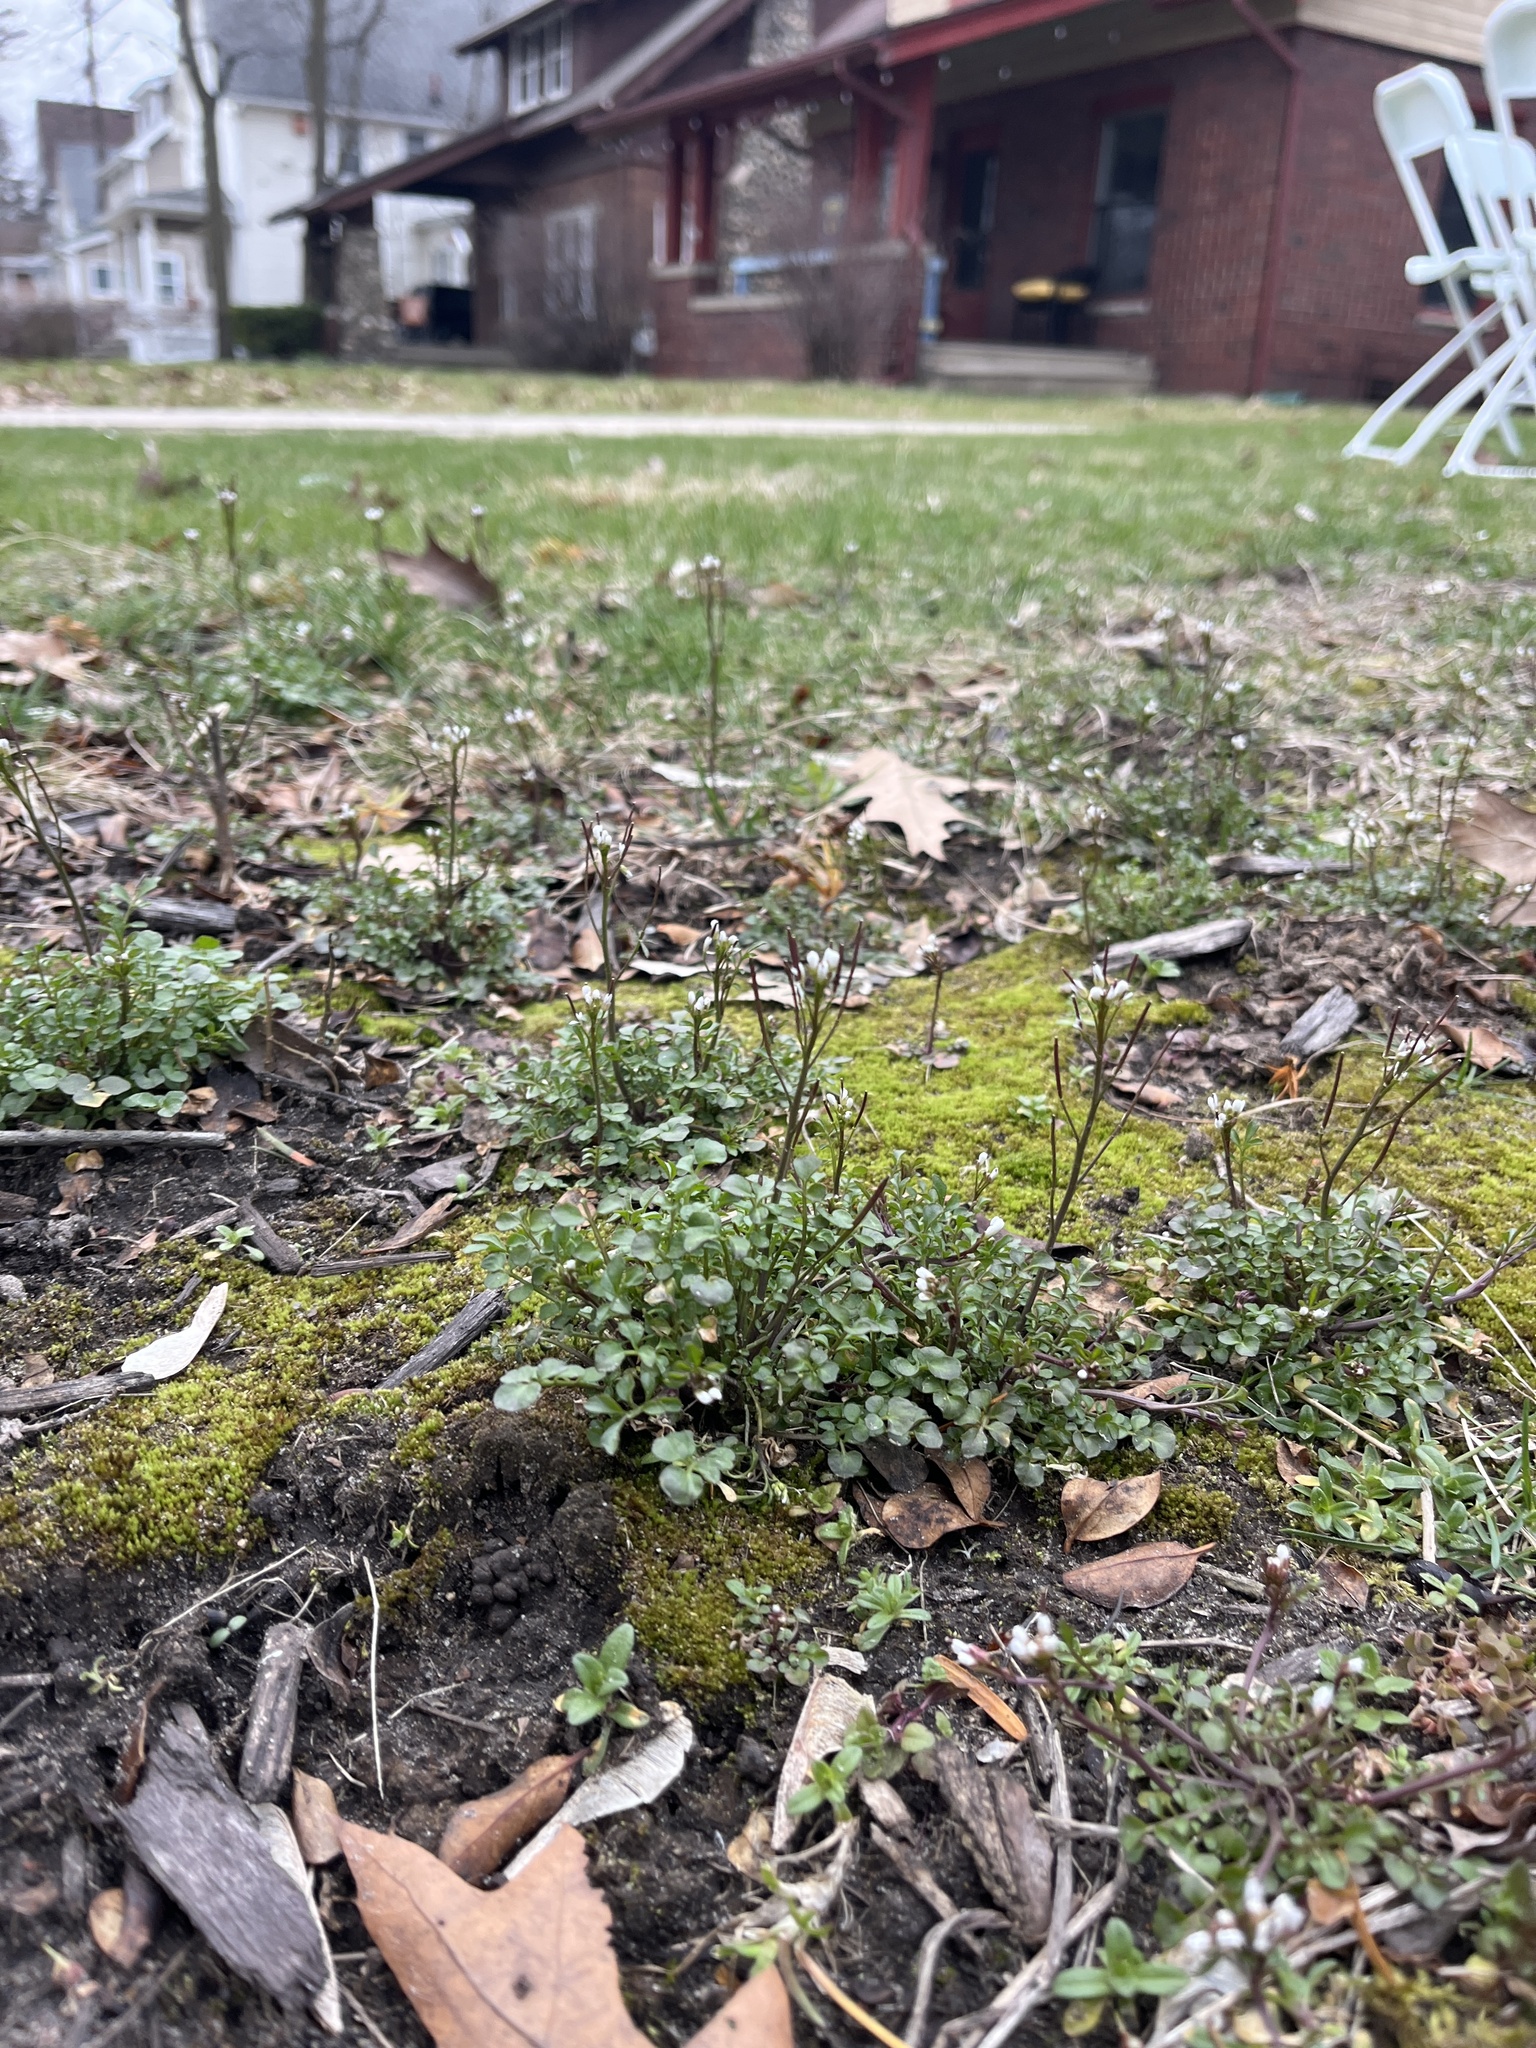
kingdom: Plantae
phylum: Tracheophyta
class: Magnoliopsida
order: Brassicales
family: Brassicaceae
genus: Cardamine
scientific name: Cardamine hirsuta
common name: Hairy bittercress
